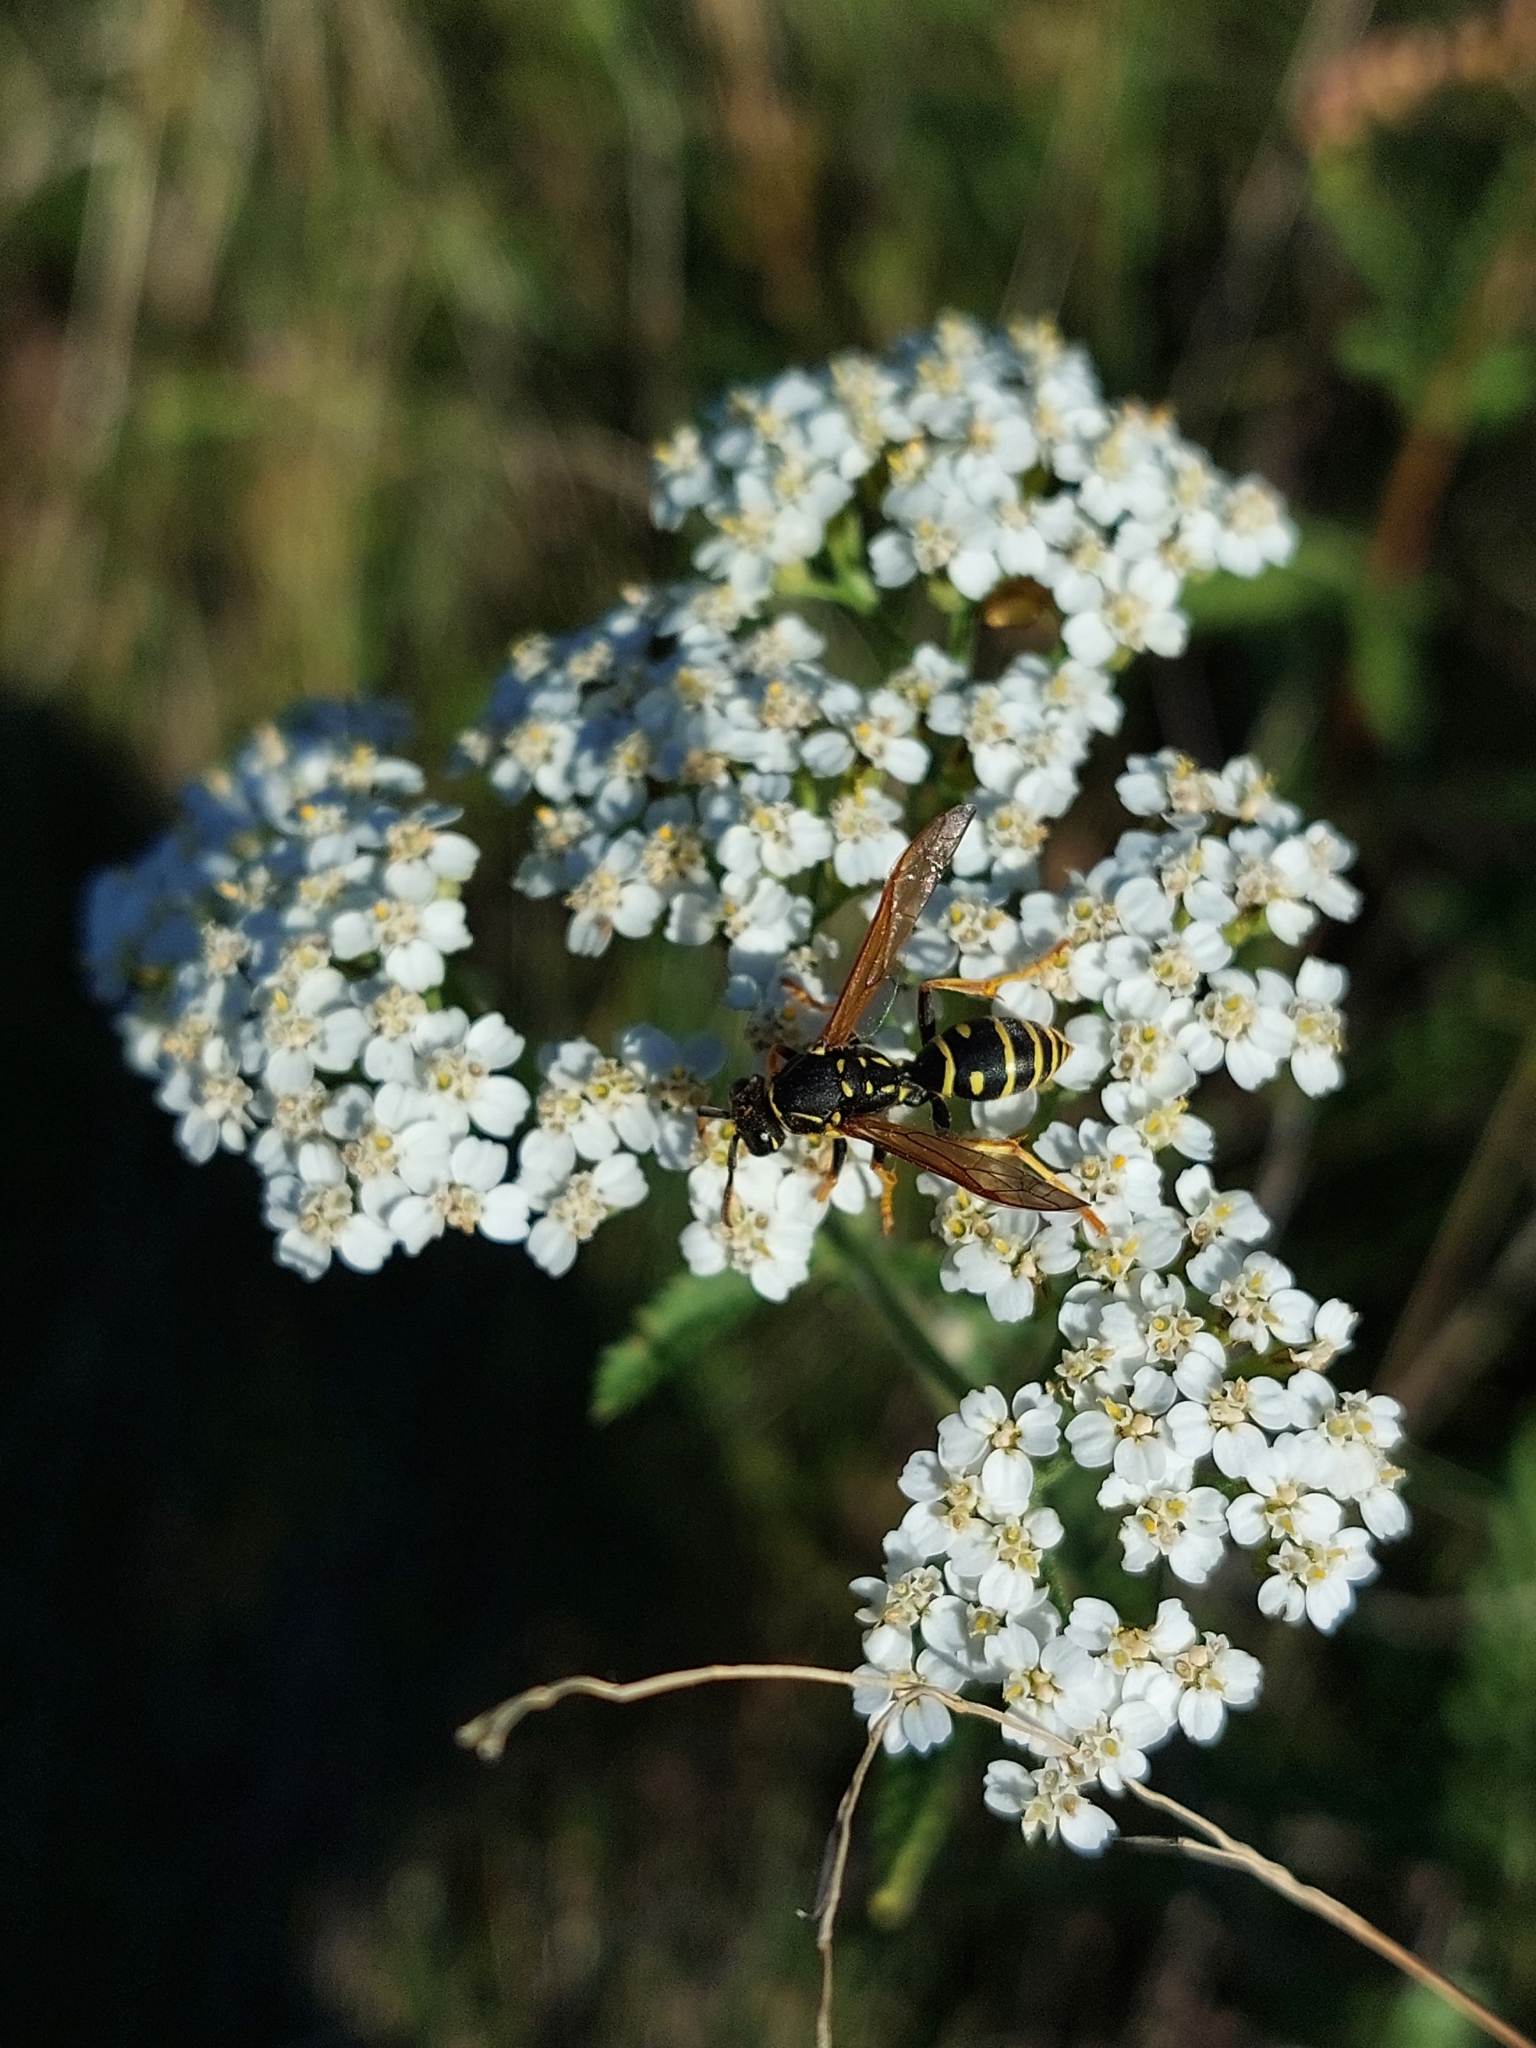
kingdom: Animalia
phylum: Arthropoda
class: Insecta
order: Hymenoptera
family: Eumenidae
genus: Polistes
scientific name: Polistes nimpha
